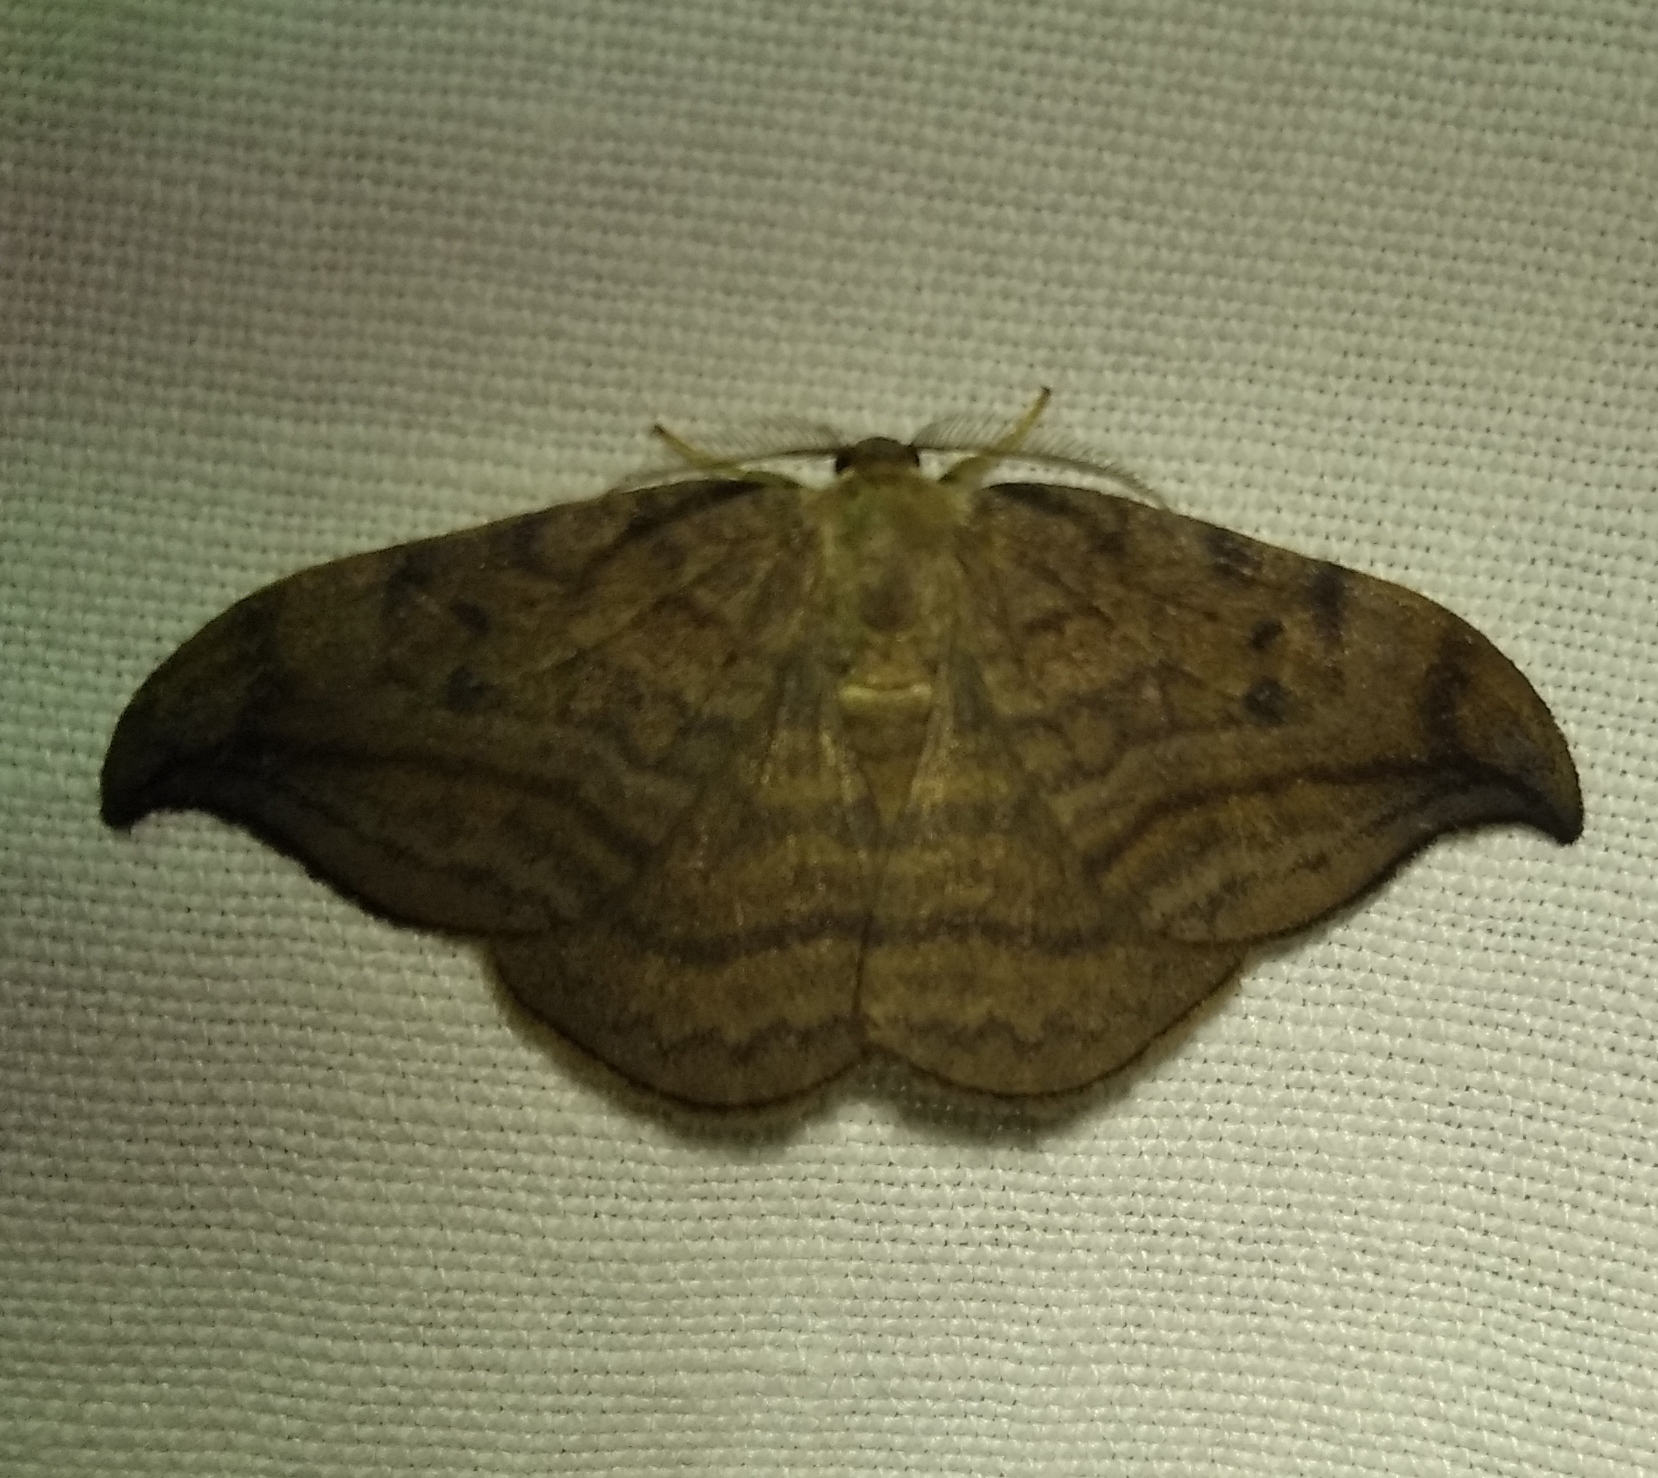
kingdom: Animalia
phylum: Arthropoda
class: Insecta
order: Lepidoptera
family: Drepanidae
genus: Drepana
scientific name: Drepana curvatula
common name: Dusky hook-tip
